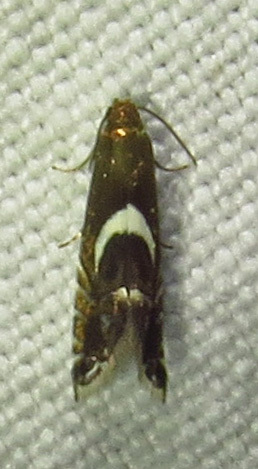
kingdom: Animalia
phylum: Arthropoda
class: Insecta
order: Lepidoptera
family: Glyphipterigidae
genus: Glyphipterix
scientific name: Glyphipterix Diploschizia impigritella
